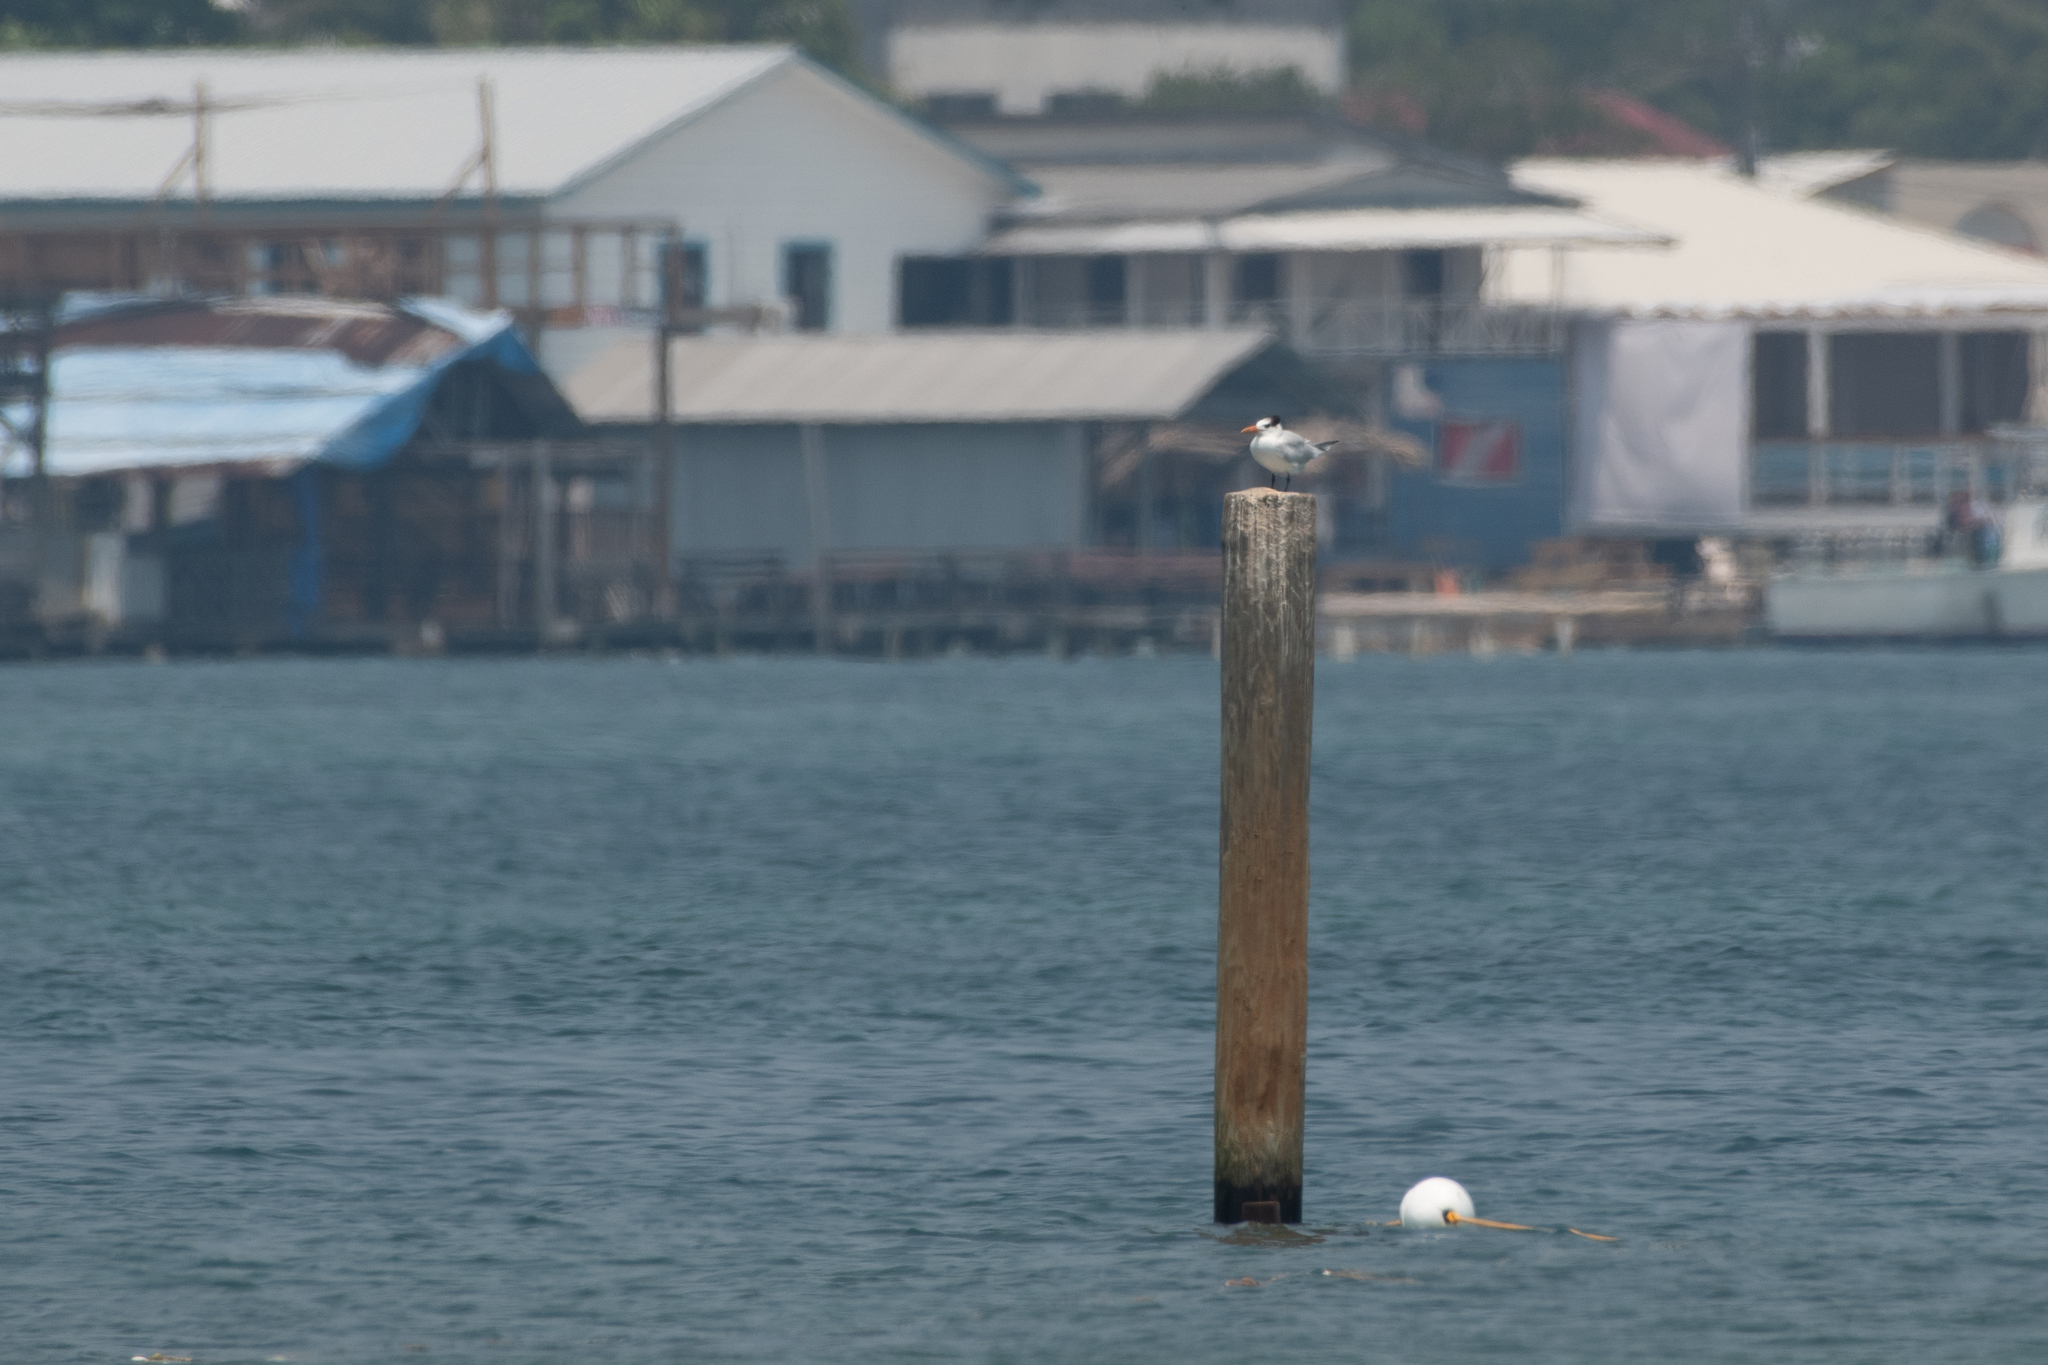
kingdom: Animalia
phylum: Chordata
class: Aves
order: Charadriiformes
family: Laridae
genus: Thalasseus
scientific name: Thalasseus maximus
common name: Royal tern
